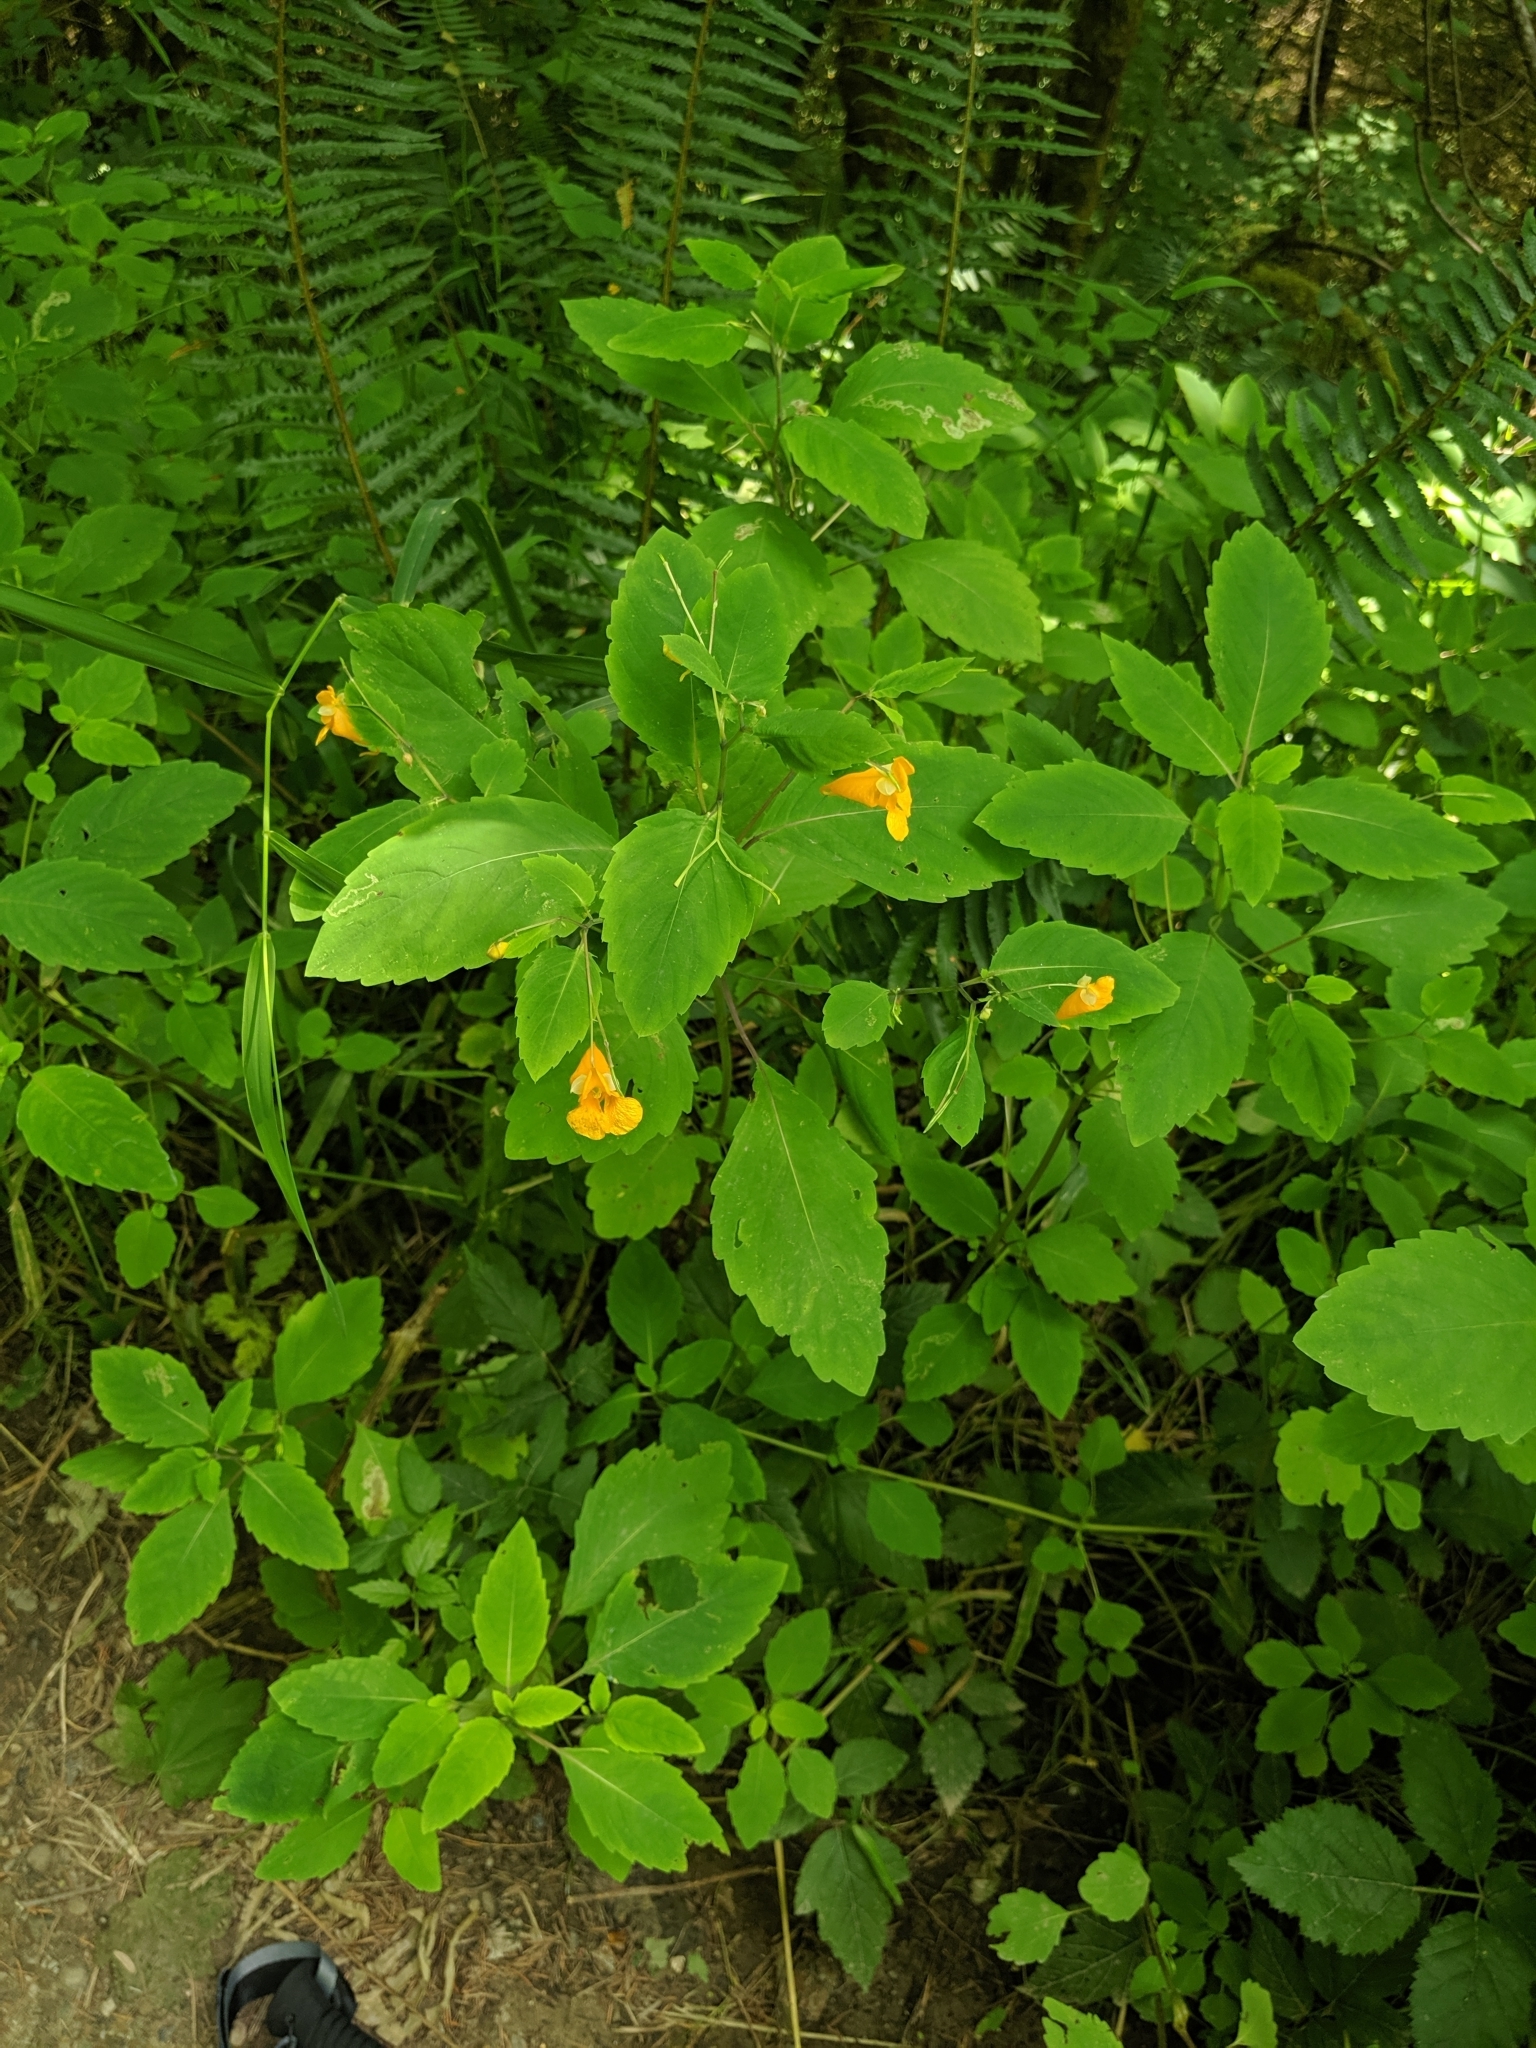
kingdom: Plantae
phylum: Tracheophyta
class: Magnoliopsida
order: Ericales
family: Balsaminaceae
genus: Impatiens
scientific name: Impatiens capensis
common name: Orange balsam
